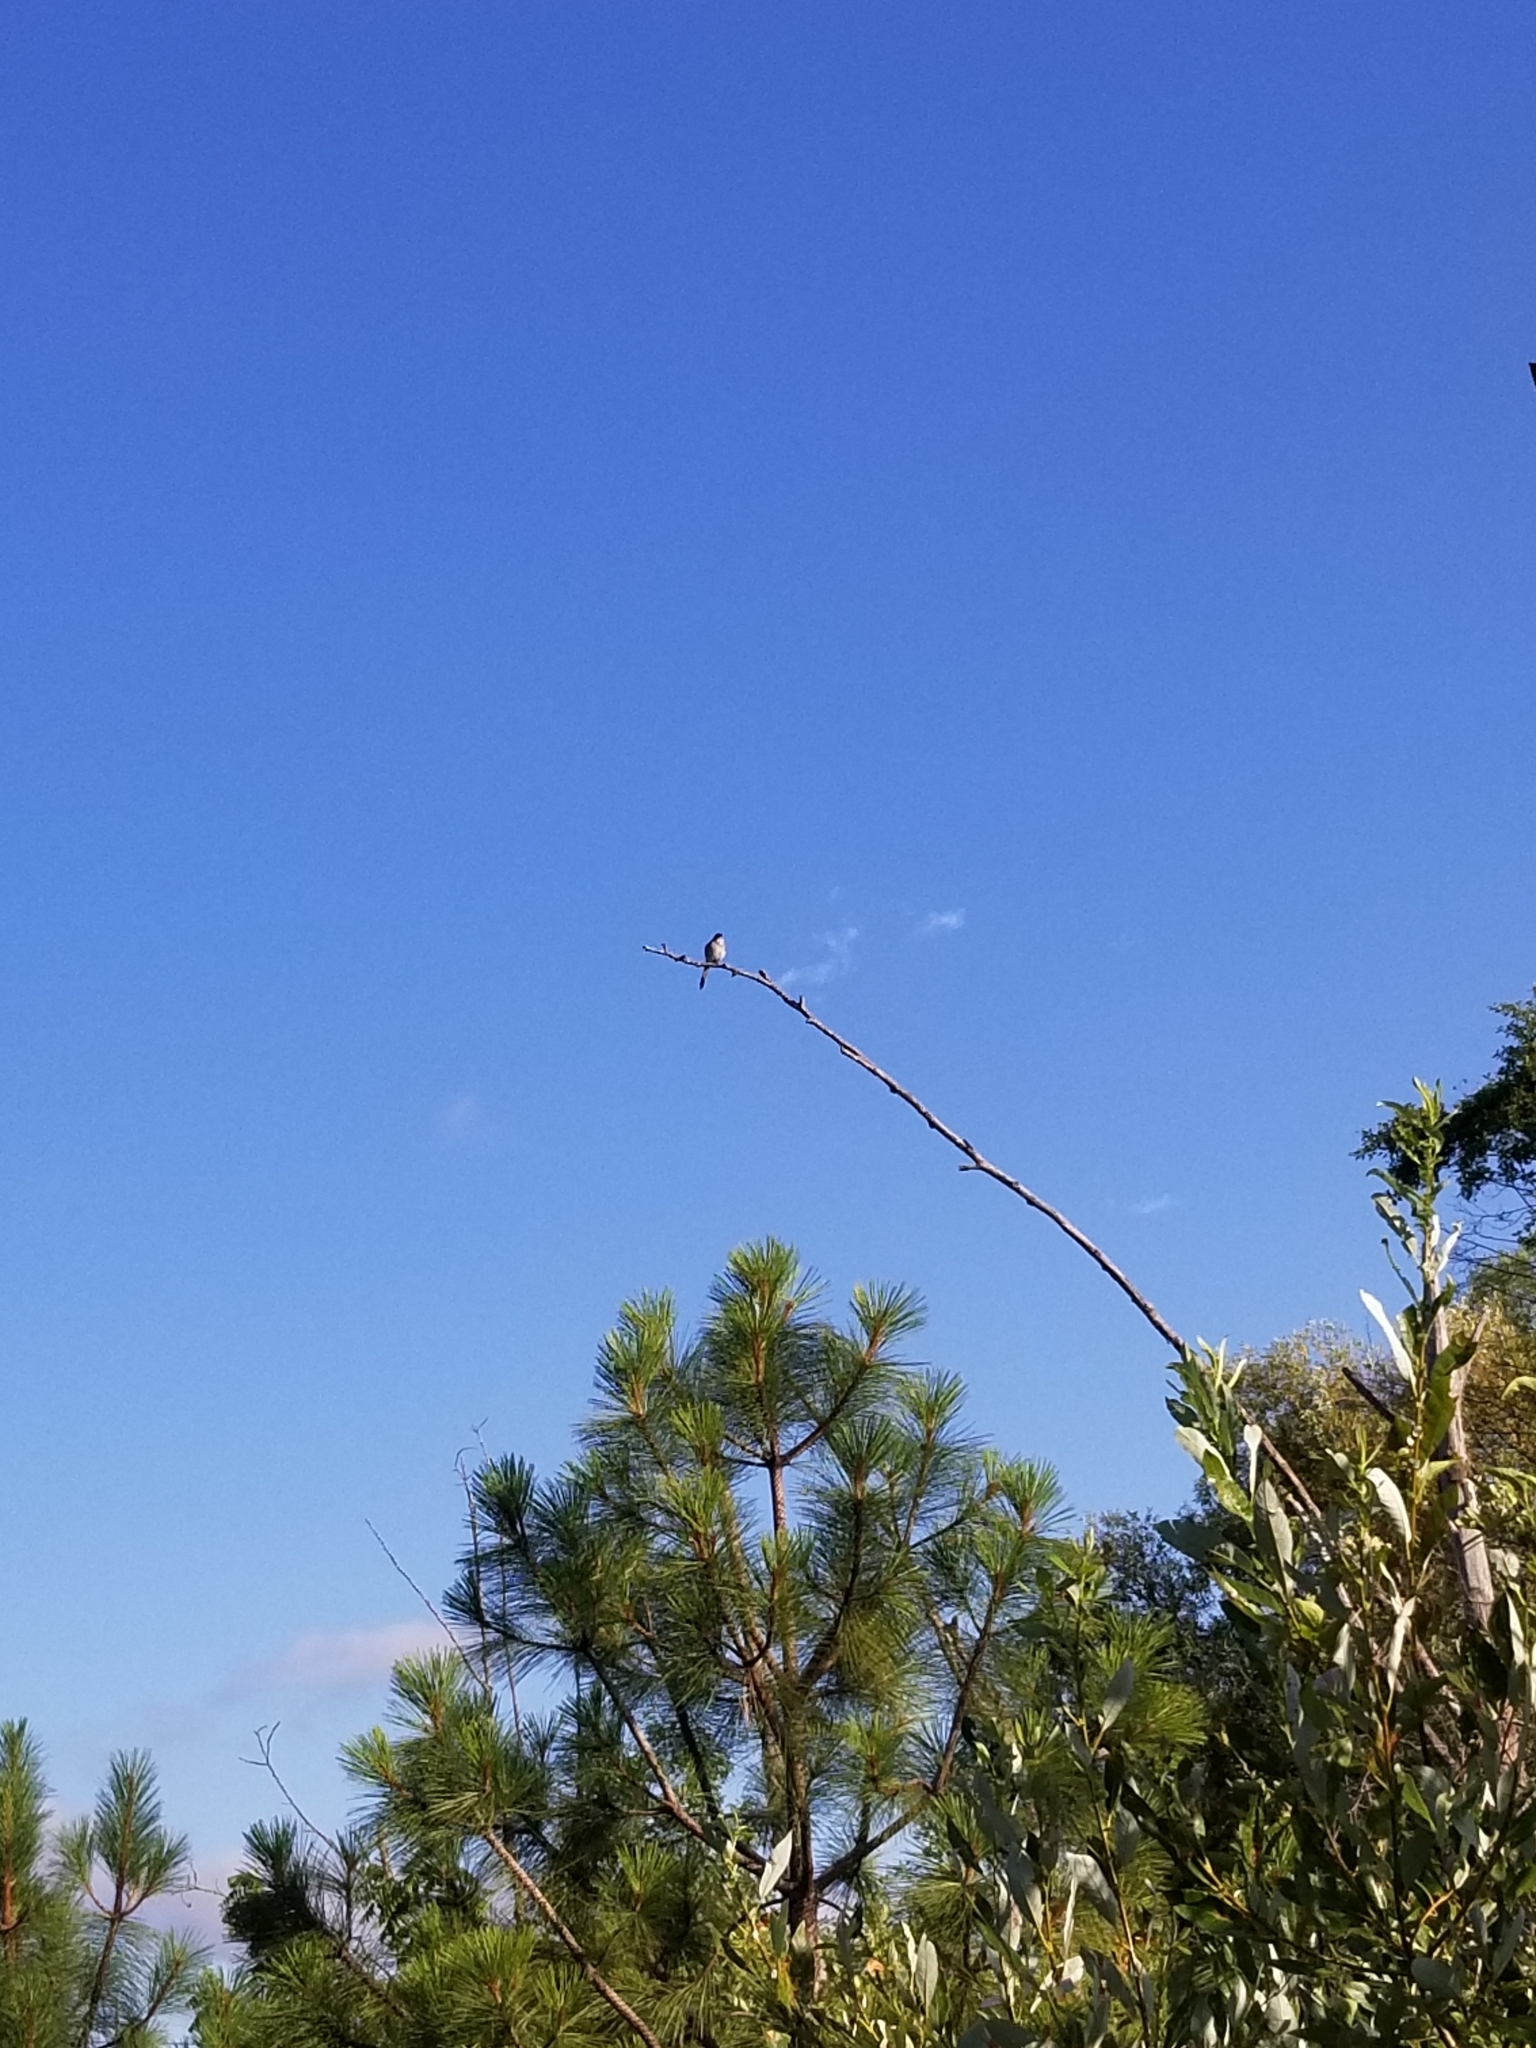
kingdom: Animalia
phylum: Chordata
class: Aves
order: Passeriformes
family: Corvidae
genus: Aphelocoma
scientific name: Aphelocoma californica
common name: California scrub-jay
